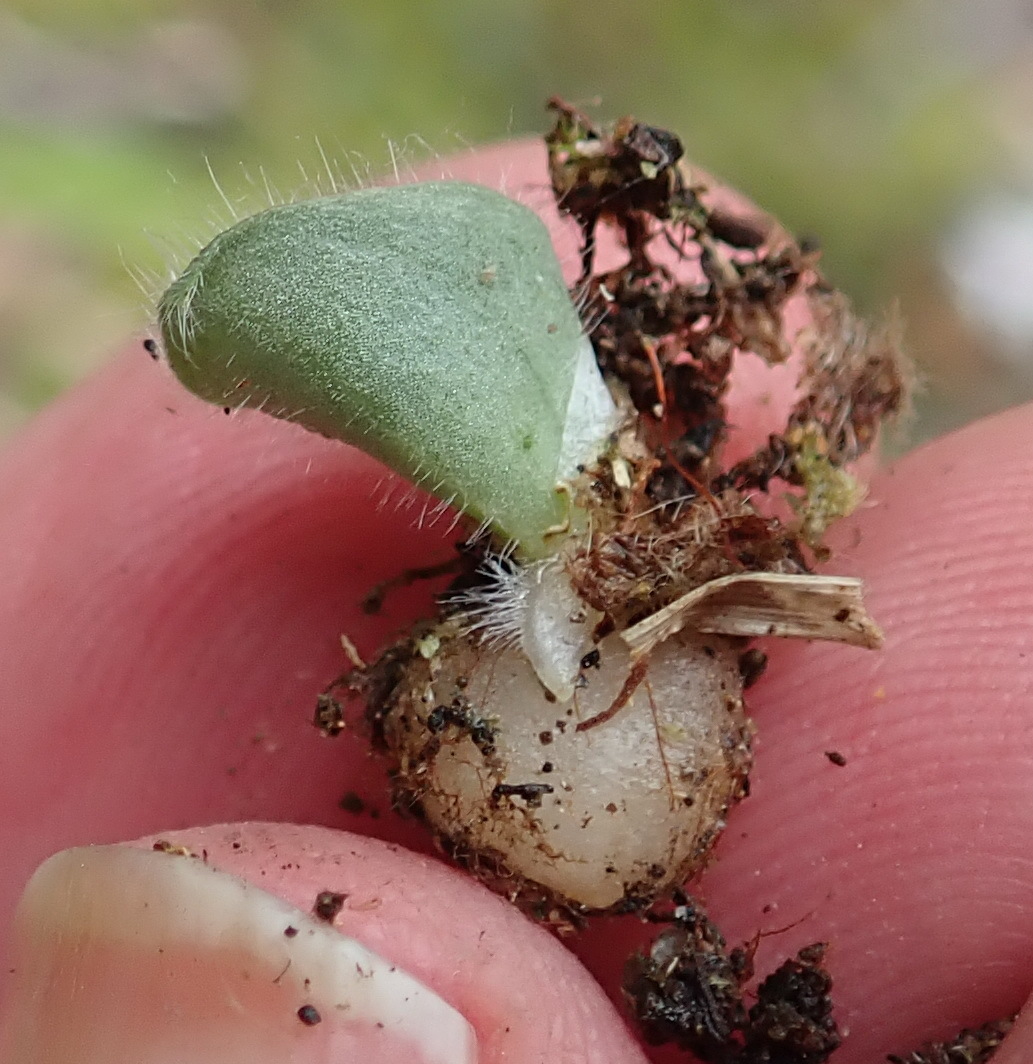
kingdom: Plantae
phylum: Tracheophyta
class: Liliopsida
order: Asparagales
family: Orchidaceae
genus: Holothrix
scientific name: Holothrix villosa
